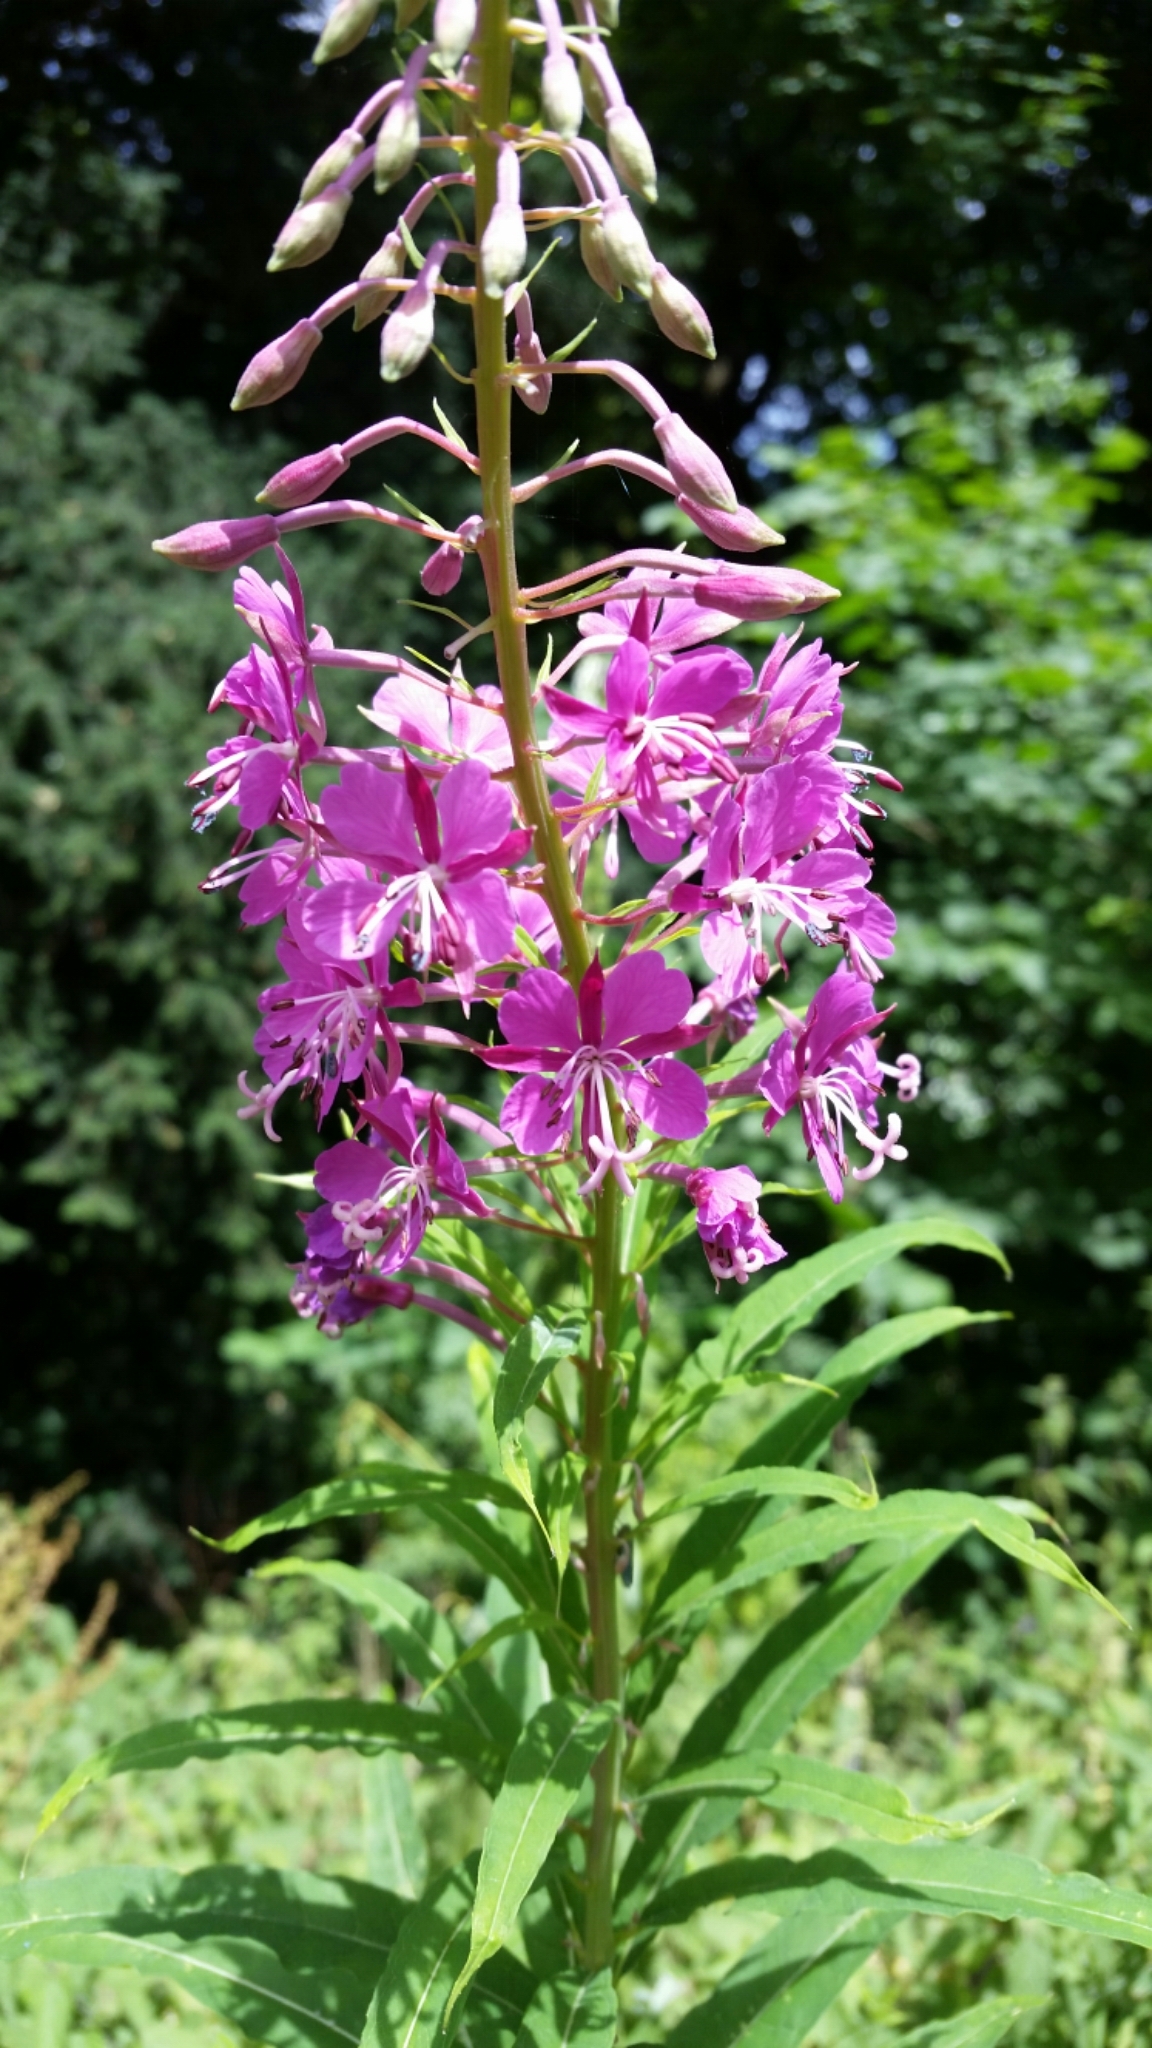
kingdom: Plantae
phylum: Tracheophyta
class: Magnoliopsida
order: Myrtales
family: Onagraceae
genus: Chamaenerion
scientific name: Chamaenerion angustifolium
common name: Fireweed
